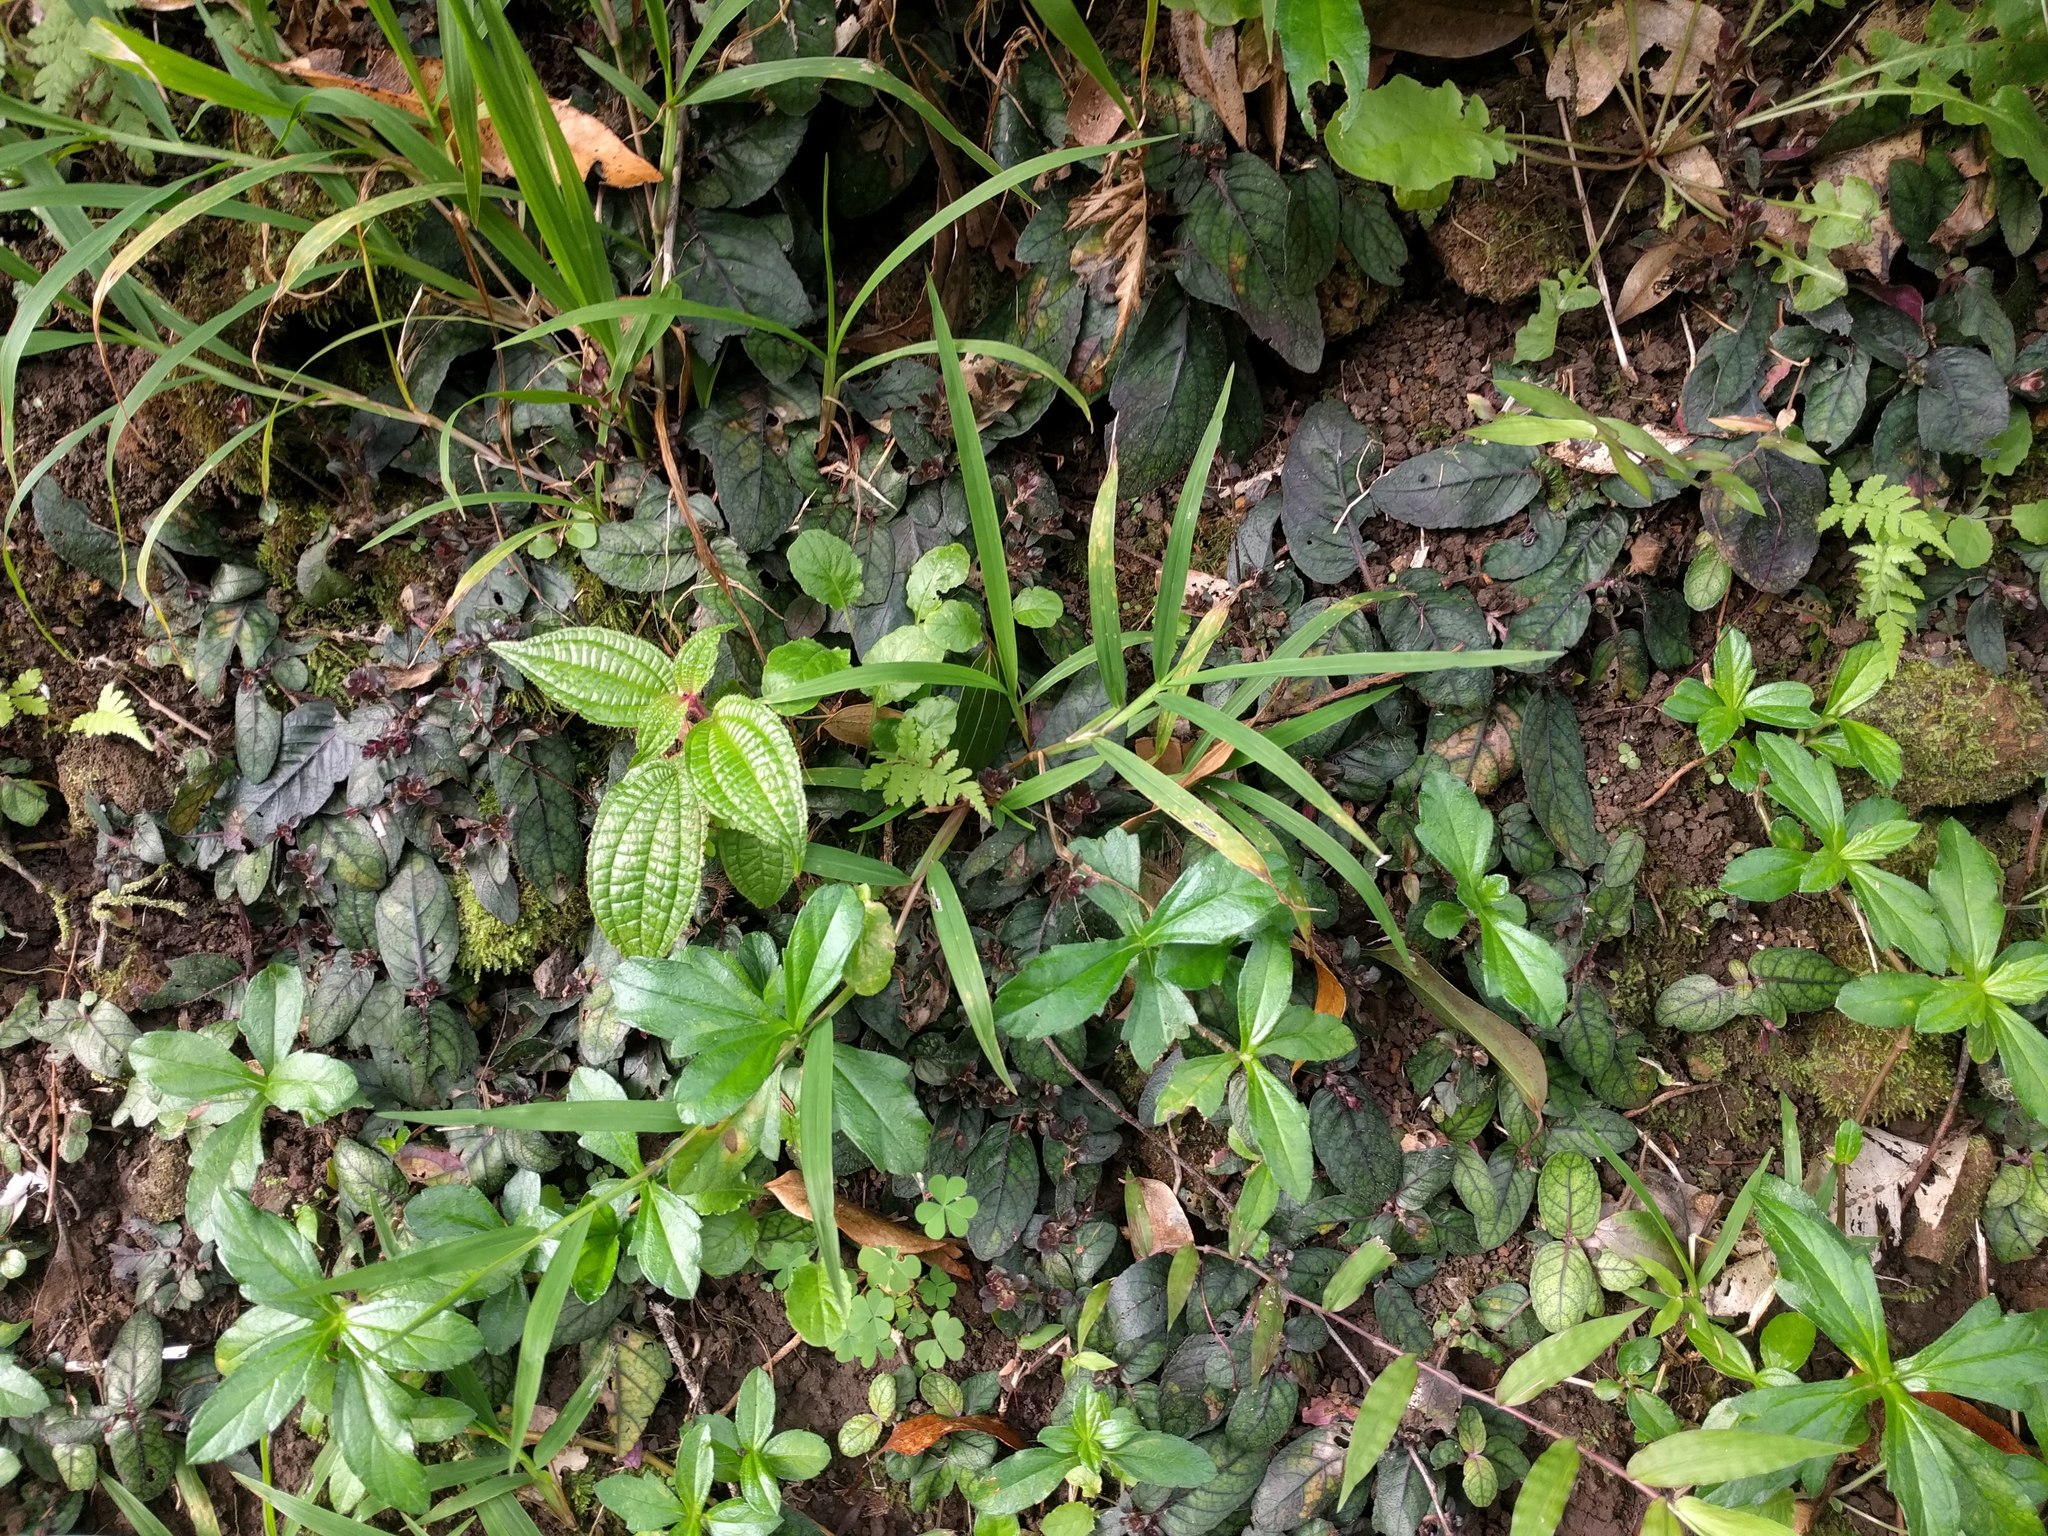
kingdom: Plantae
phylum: Tracheophyta
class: Magnoliopsida
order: Asterales
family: Asteraceae
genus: Sphagneticola
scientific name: Sphagneticola trilobata
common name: Bay biscayne creeping-oxeye
